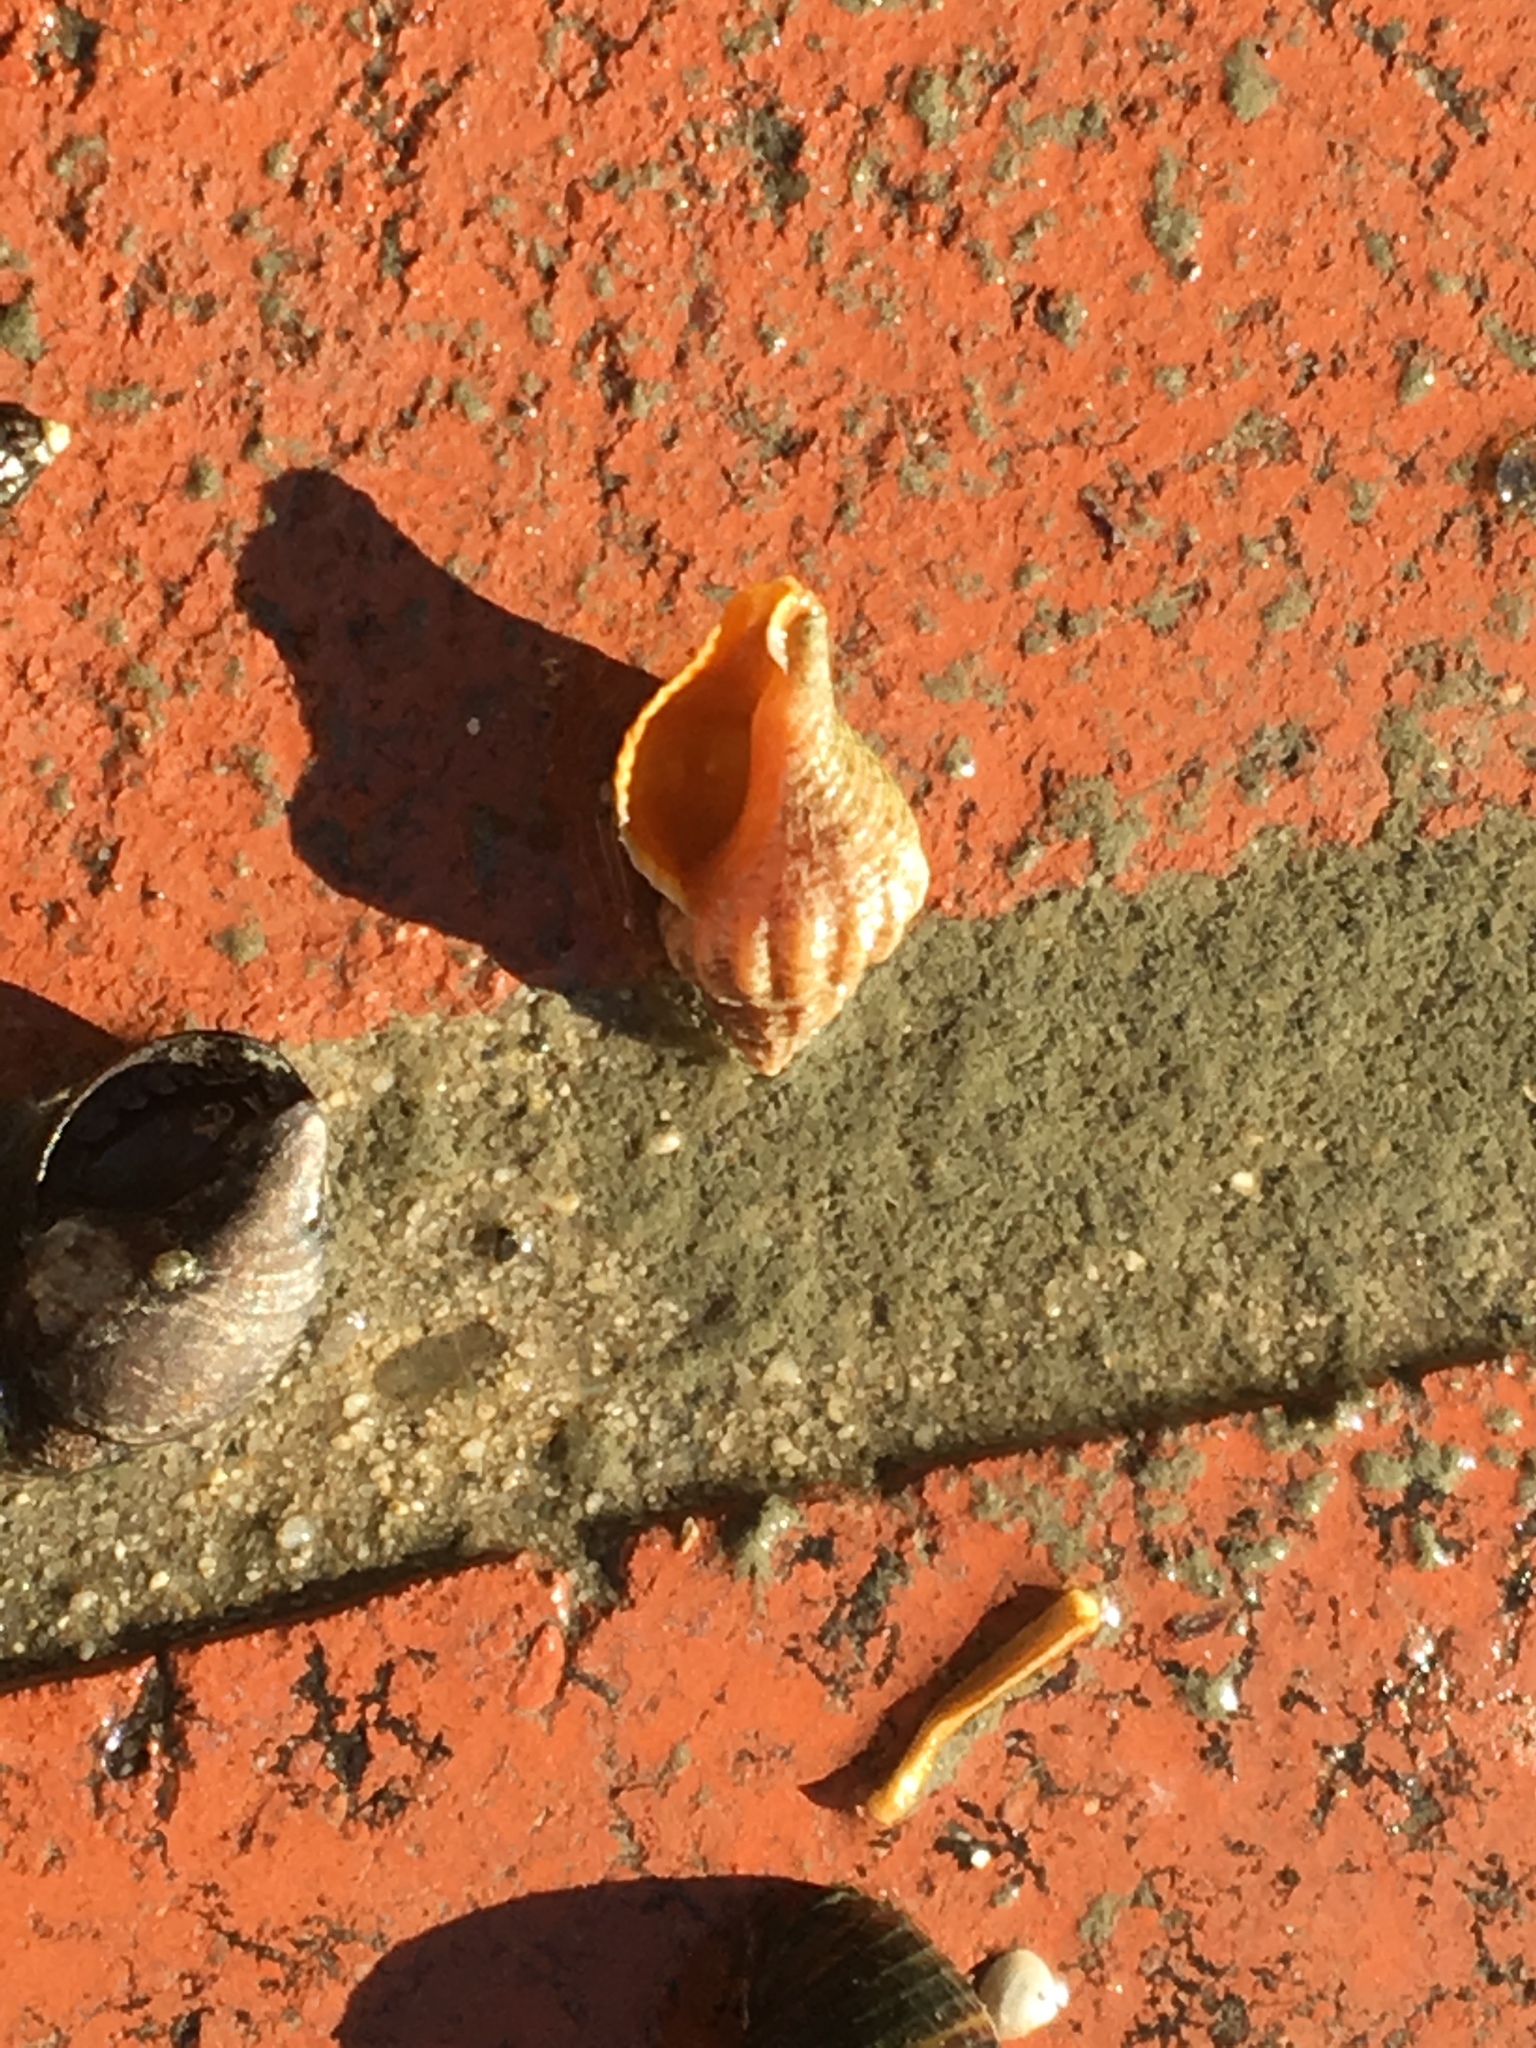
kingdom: Animalia
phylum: Mollusca
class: Gastropoda
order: Neogastropoda
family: Muricidae
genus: Urosalpinx
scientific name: Urosalpinx cinerea
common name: American sting winkle
